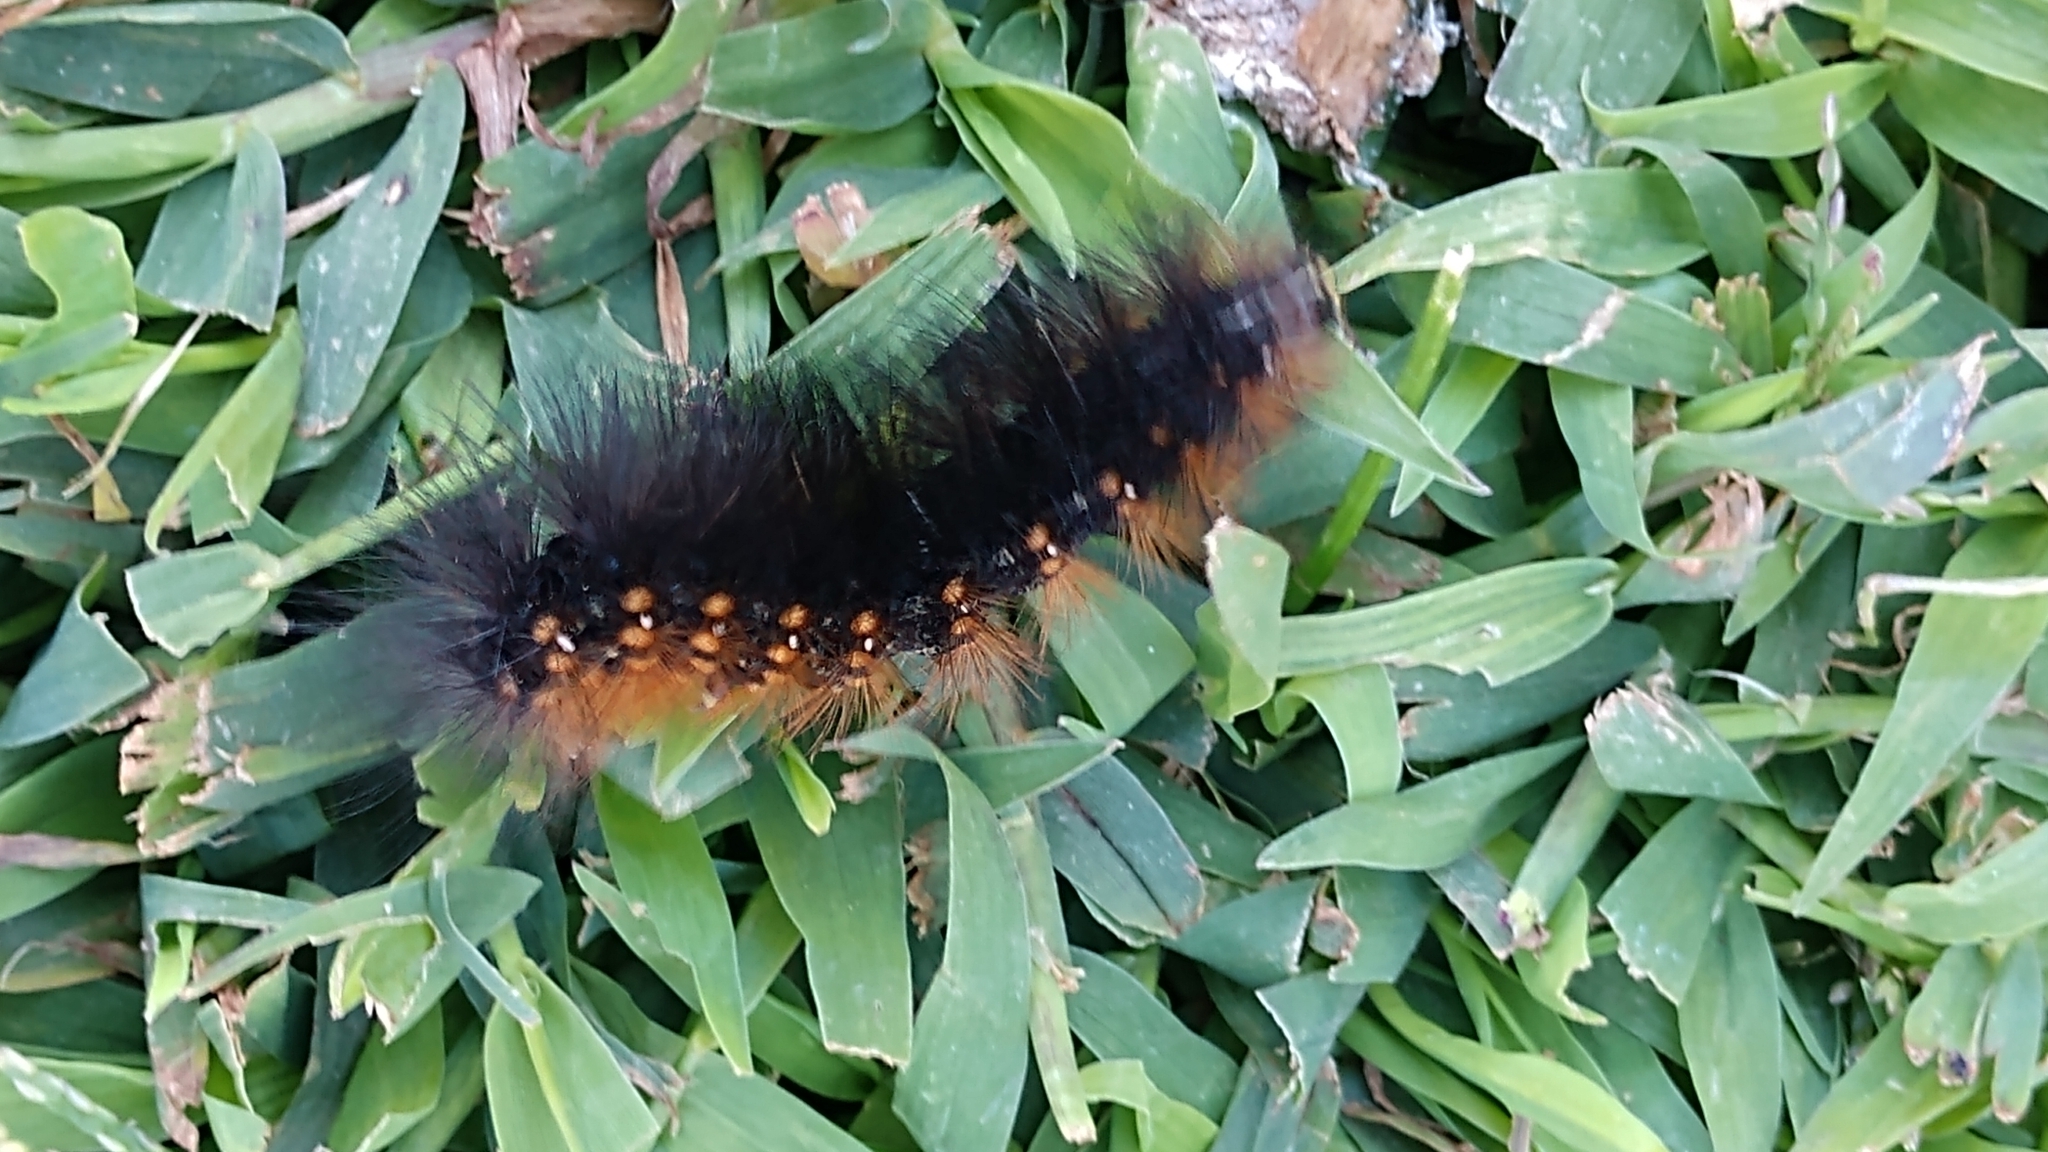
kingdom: Animalia
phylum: Arthropoda
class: Insecta
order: Lepidoptera
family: Erebidae
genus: Estigmene
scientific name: Estigmene acrea
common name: Salt marsh moth
